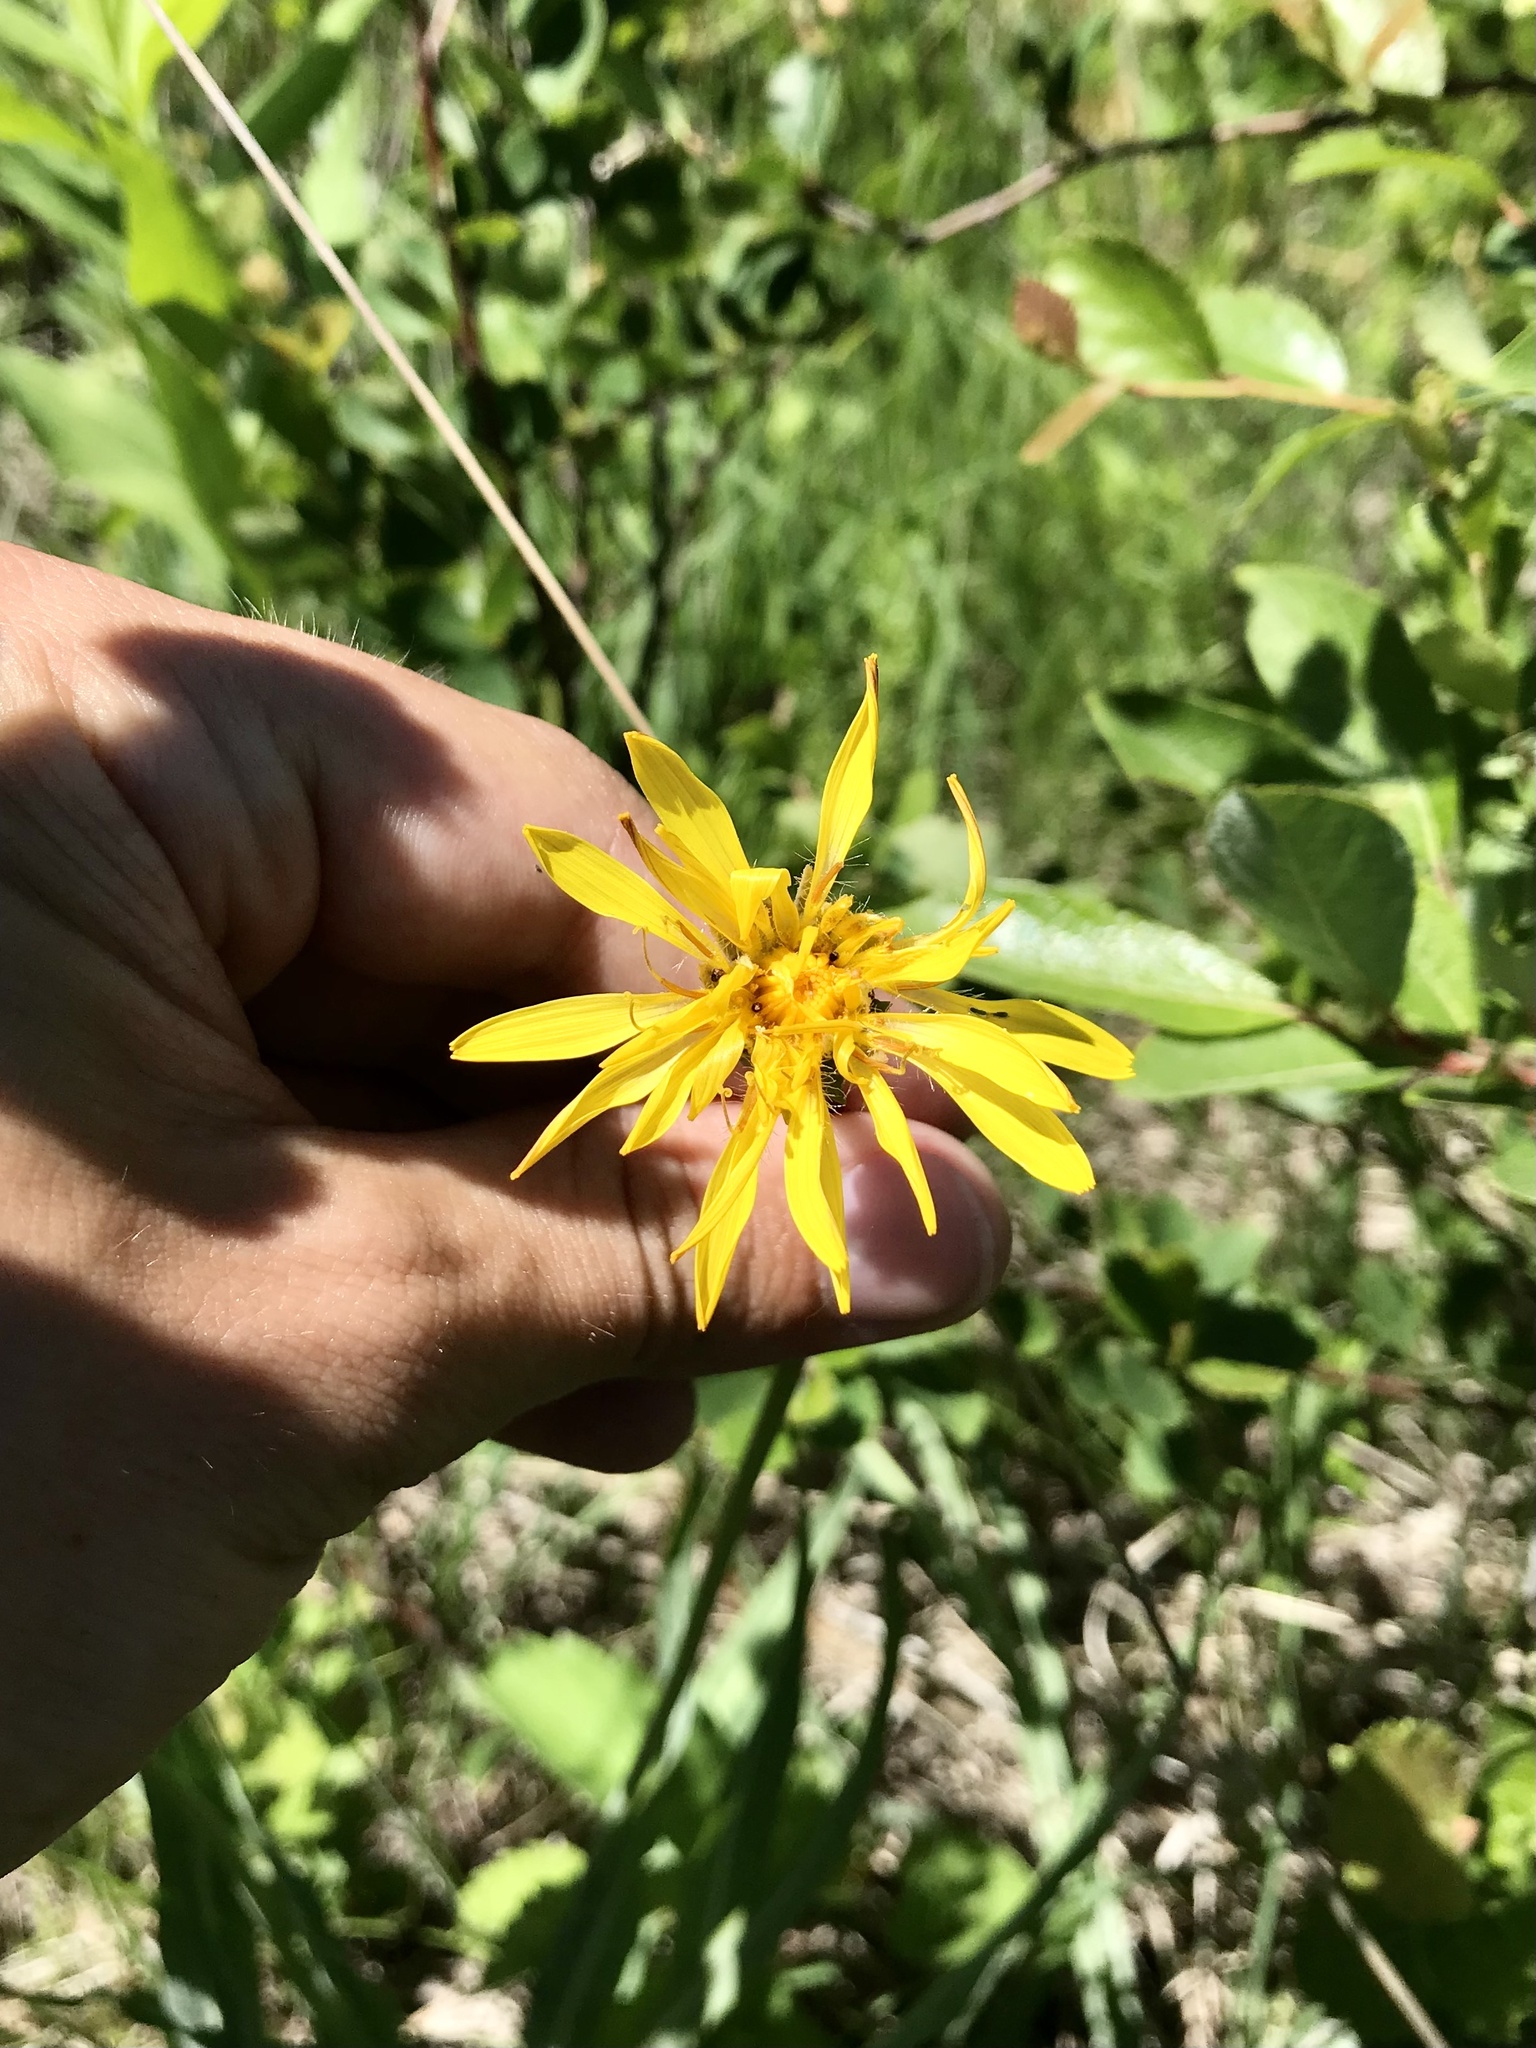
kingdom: Plantae
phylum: Tracheophyta
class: Magnoliopsida
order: Asterales
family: Asteraceae
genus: Agoseris
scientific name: Agoseris glauca
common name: Prairie agoseris
